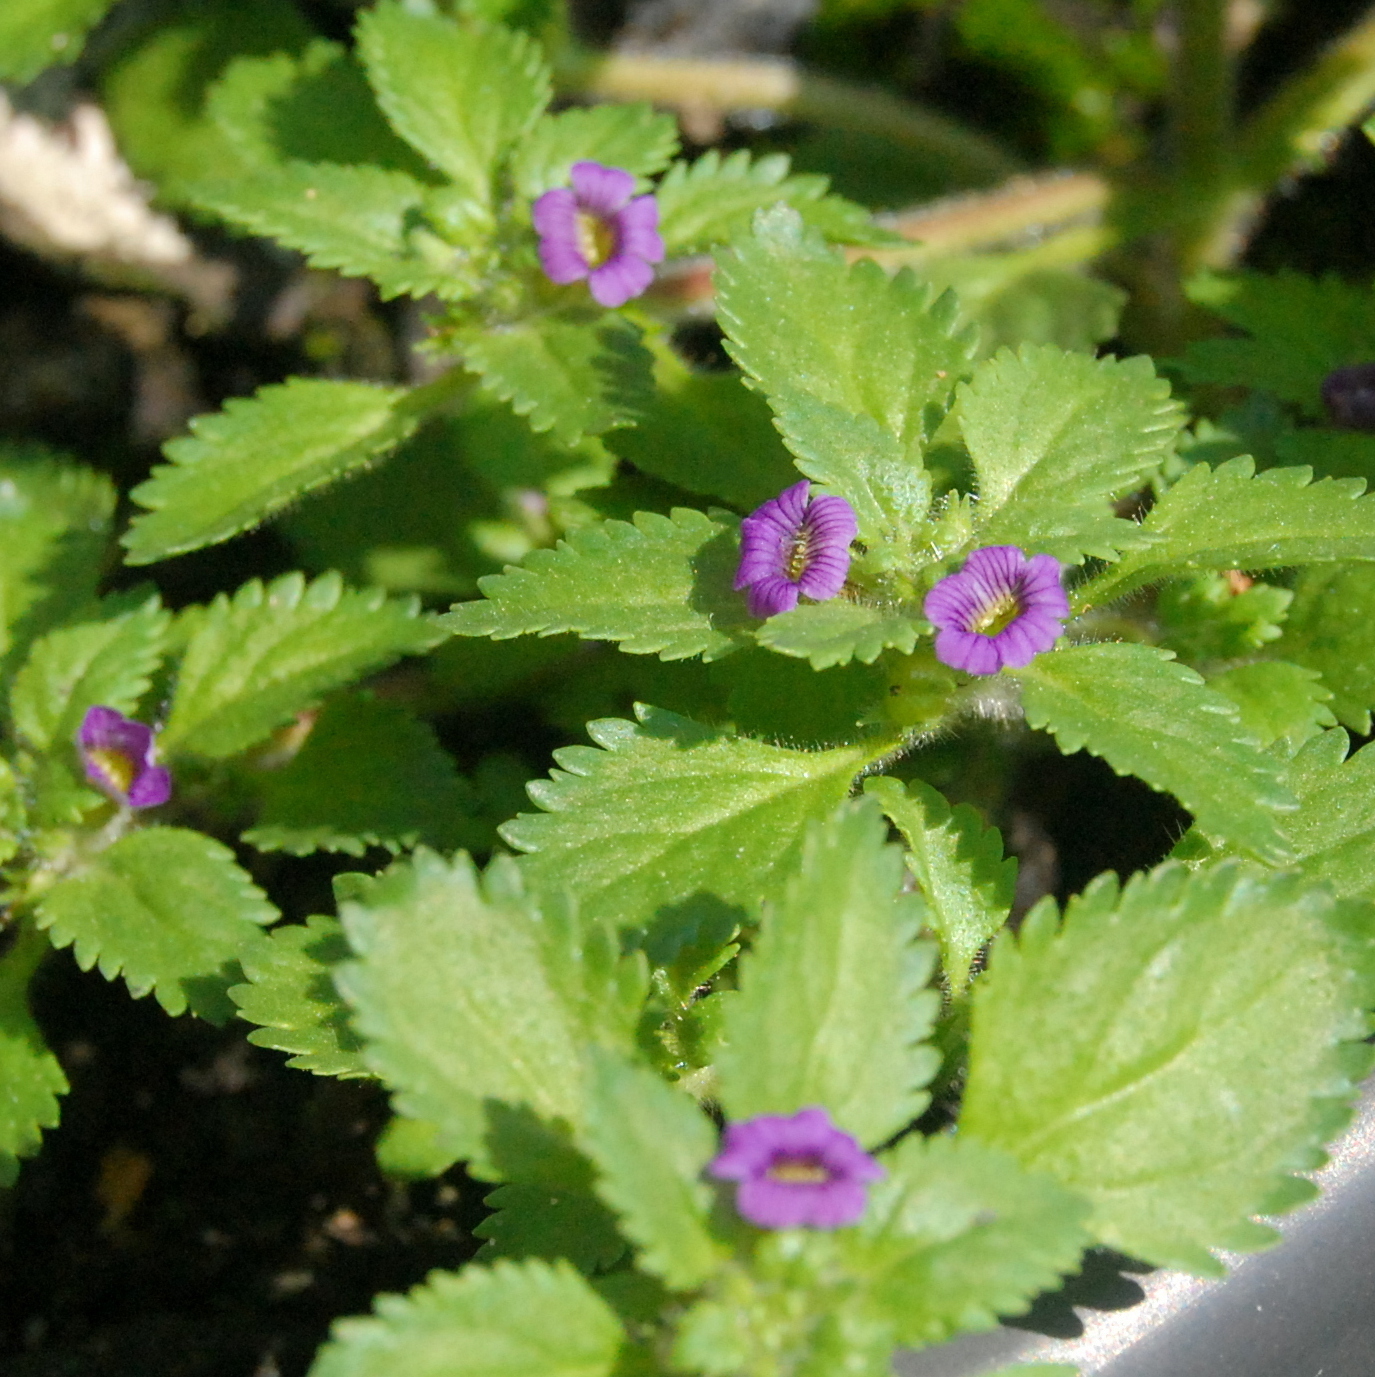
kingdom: Plantae
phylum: Tracheophyta
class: Magnoliopsida
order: Lamiales
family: Plantaginaceae
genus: Stemodia
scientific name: Stemodia verticillata
